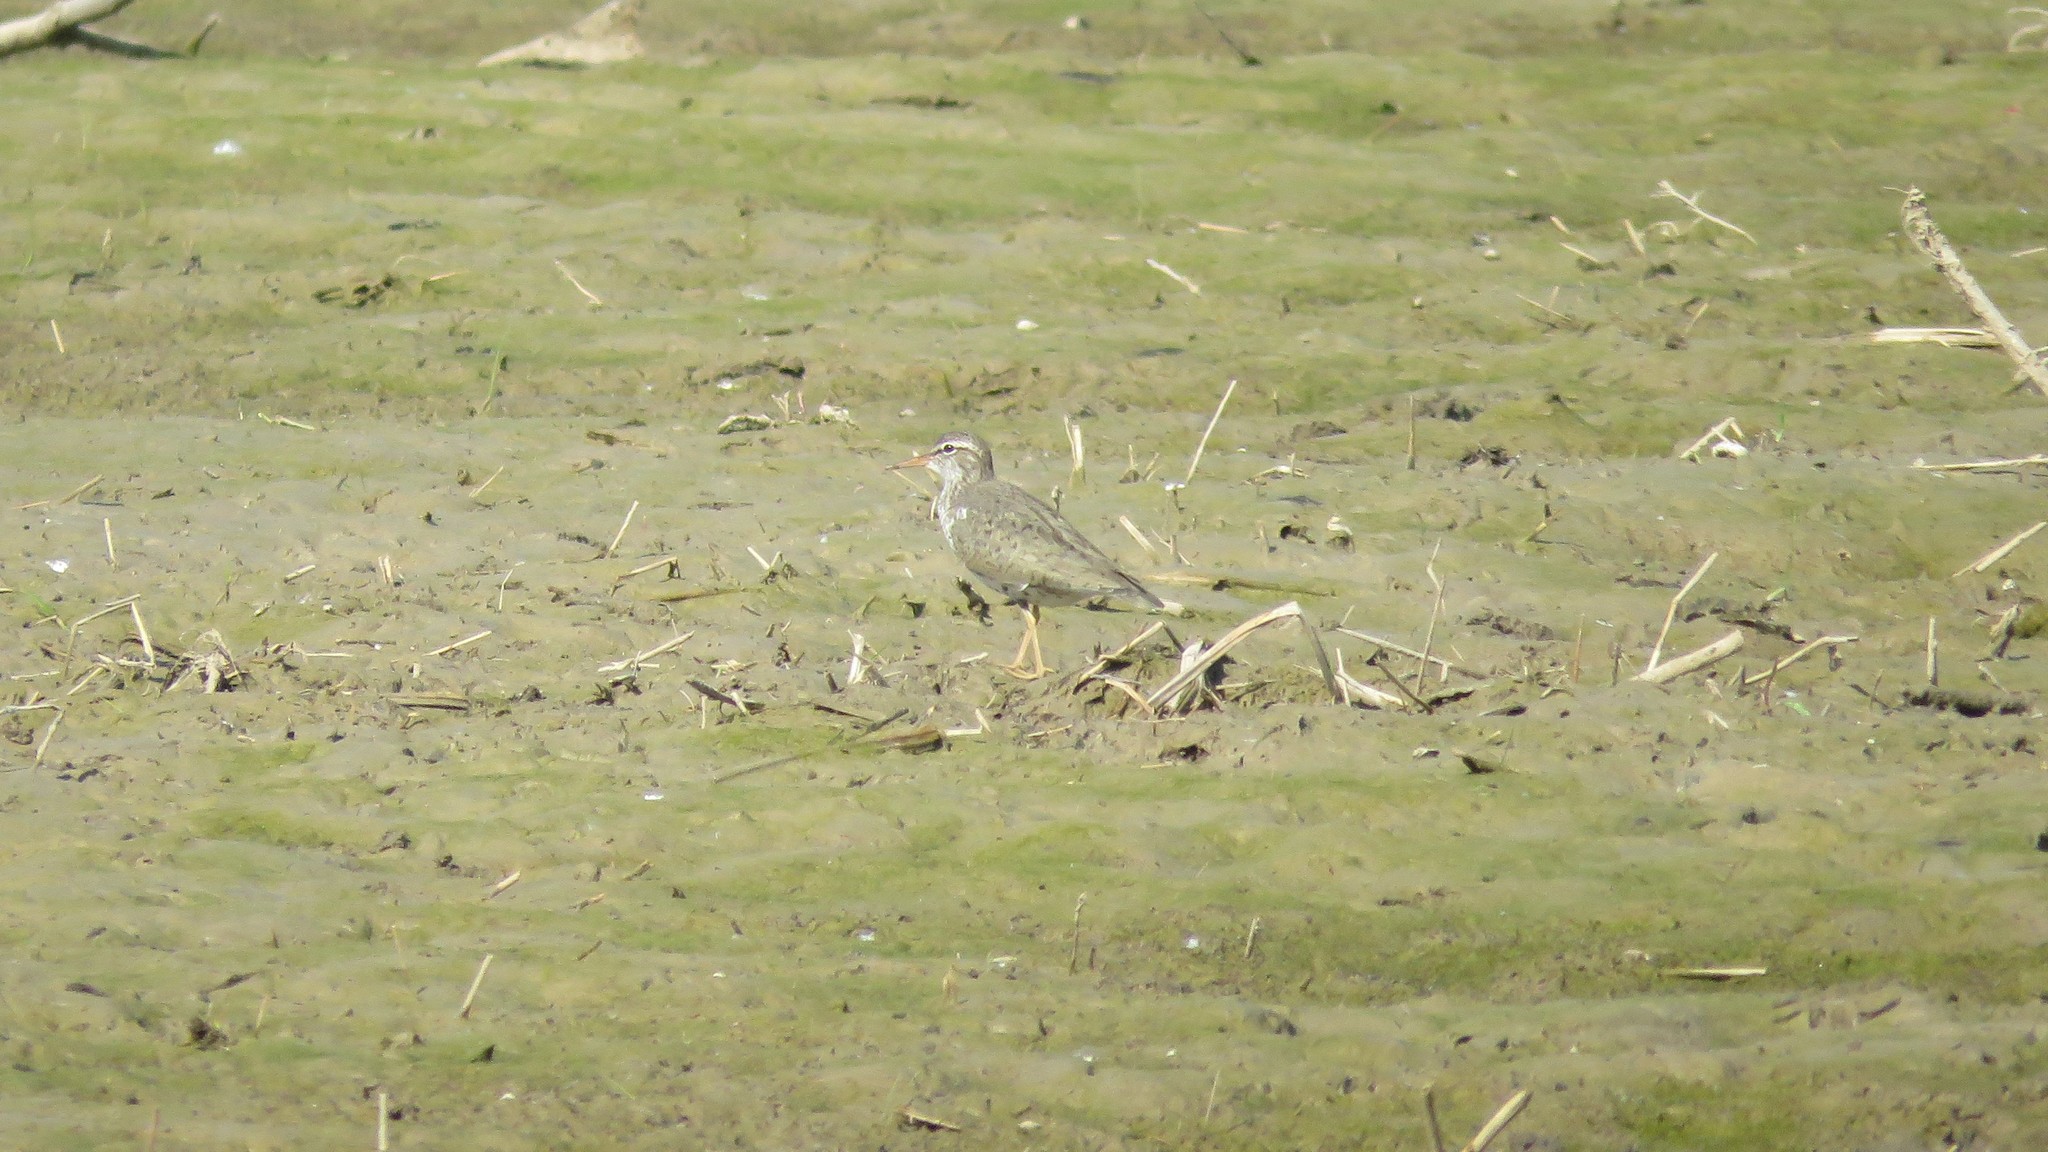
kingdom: Animalia
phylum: Chordata
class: Aves
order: Charadriiformes
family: Scolopacidae
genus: Actitis
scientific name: Actitis macularius
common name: Spotted sandpiper
